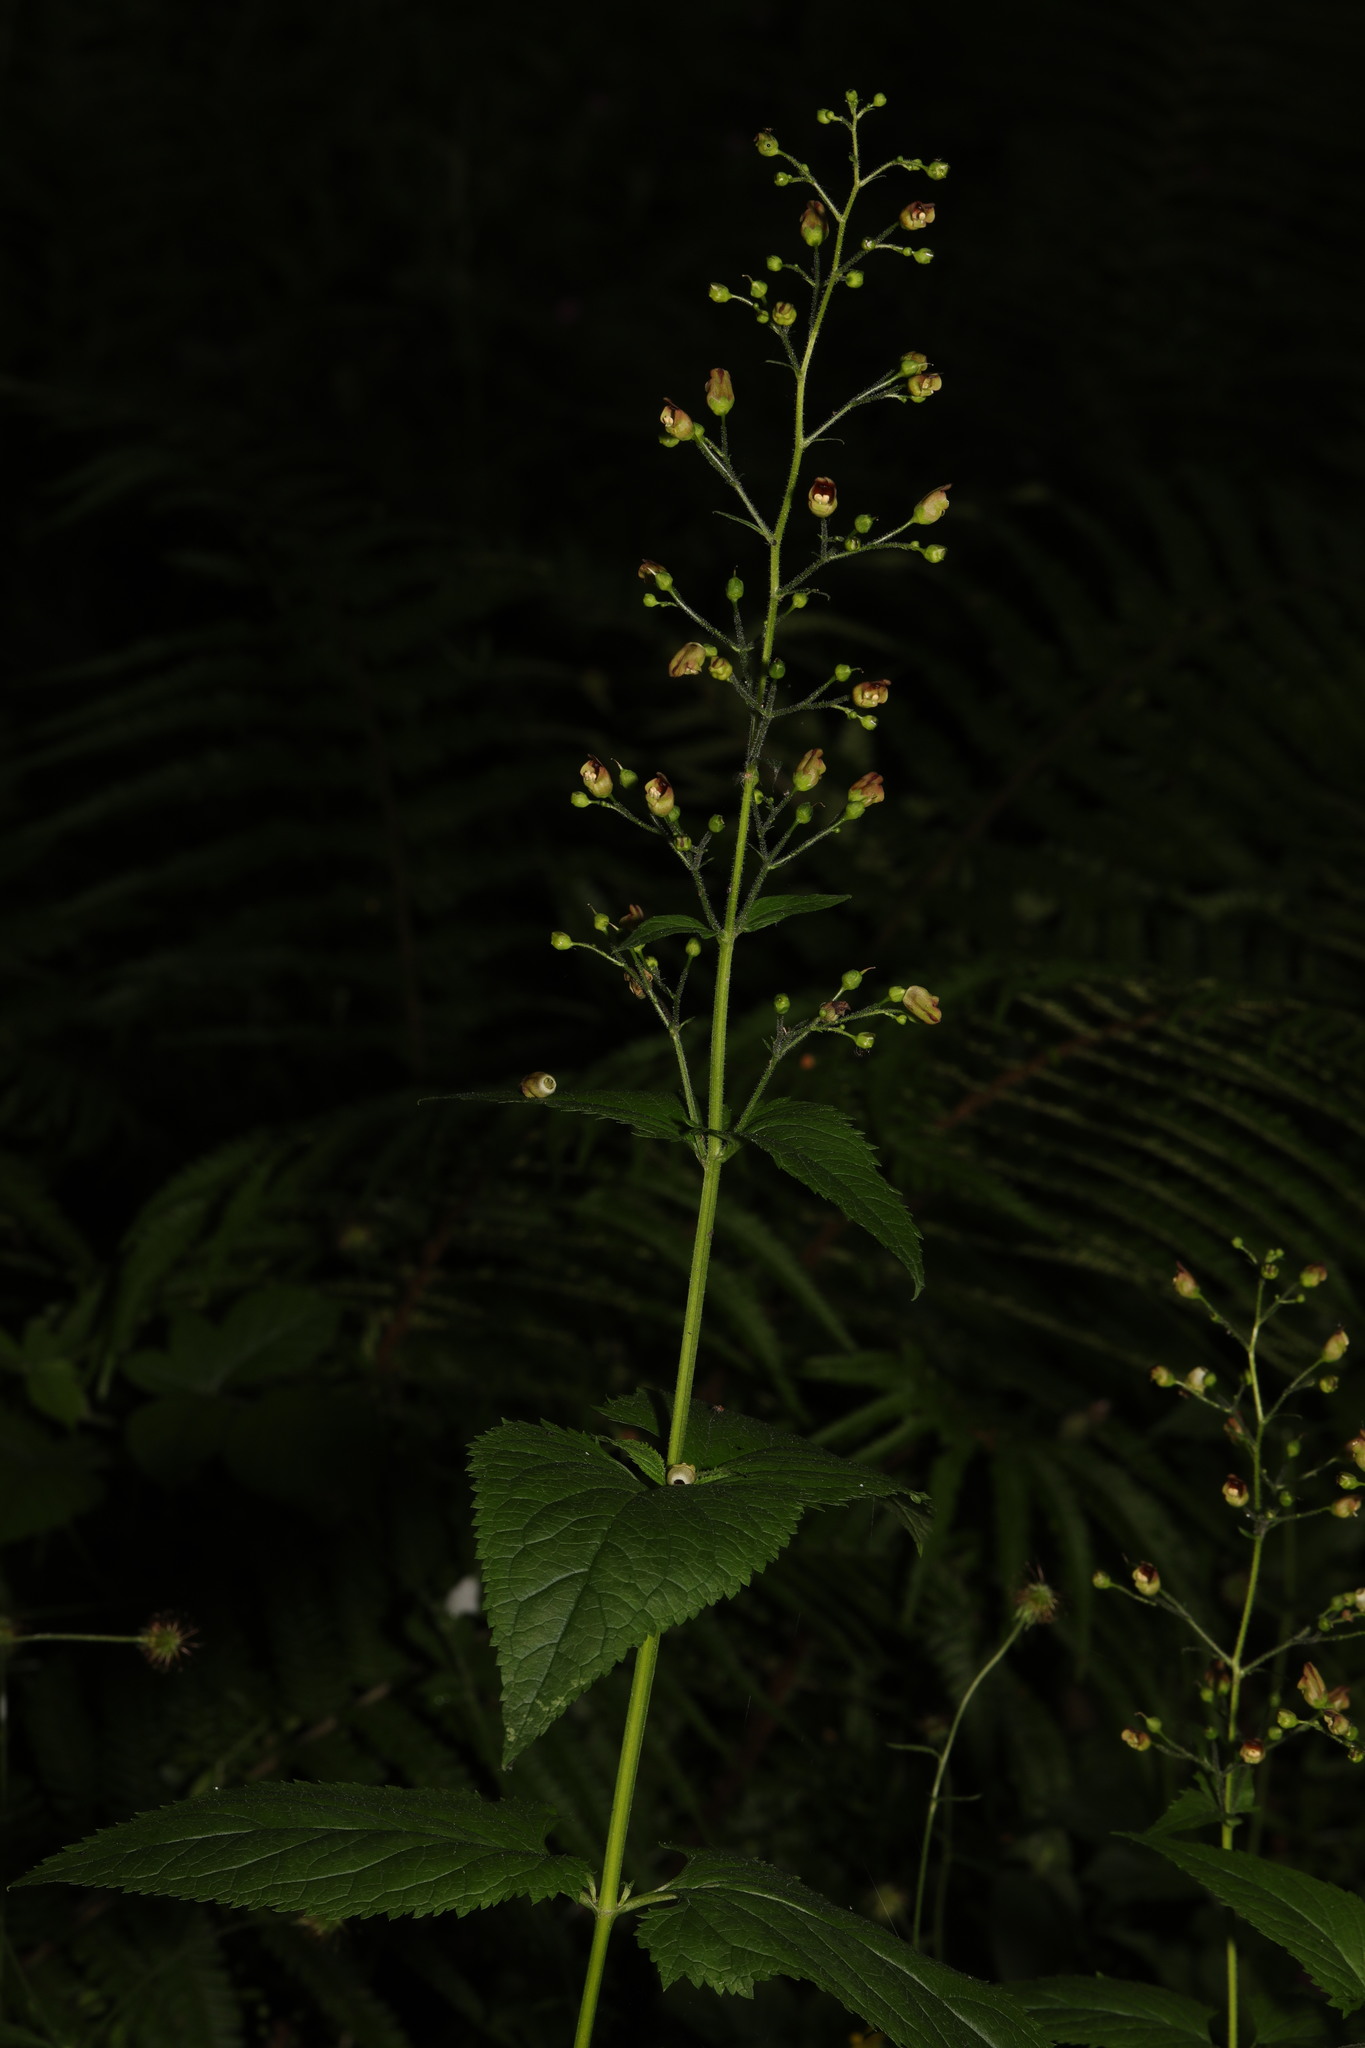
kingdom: Plantae
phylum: Tracheophyta
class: Magnoliopsida
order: Lamiales
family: Scrophulariaceae
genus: Scrophularia
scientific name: Scrophularia nodosa
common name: Common figwort
